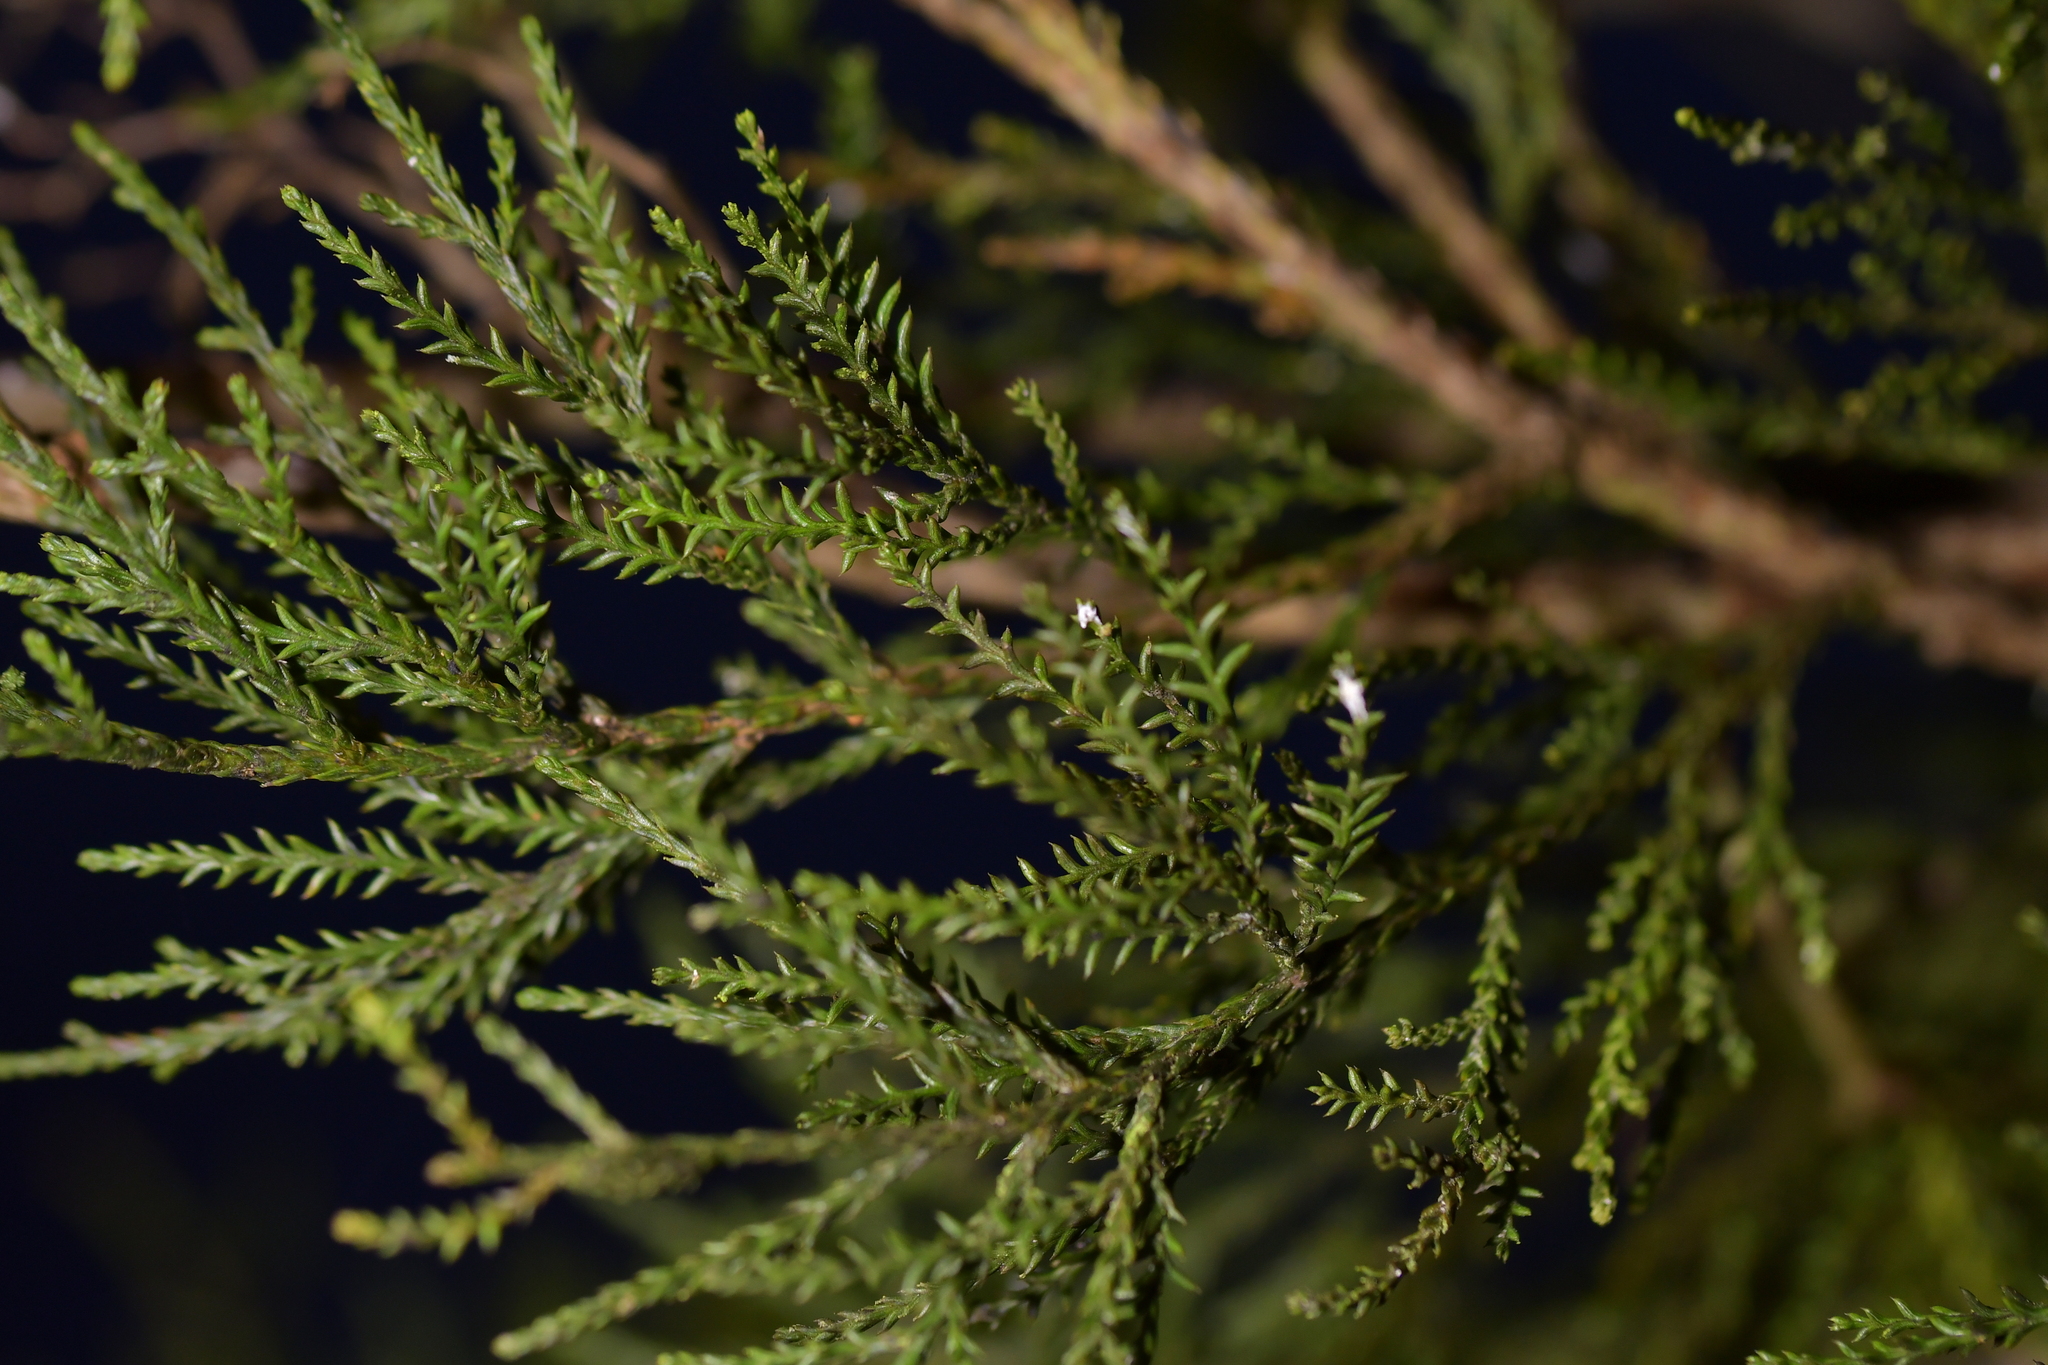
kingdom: Plantae
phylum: Tracheophyta
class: Pinopsida
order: Pinales
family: Podocarpaceae
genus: Dacrycarpus
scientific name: Dacrycarpus dacrydioides
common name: White pine
